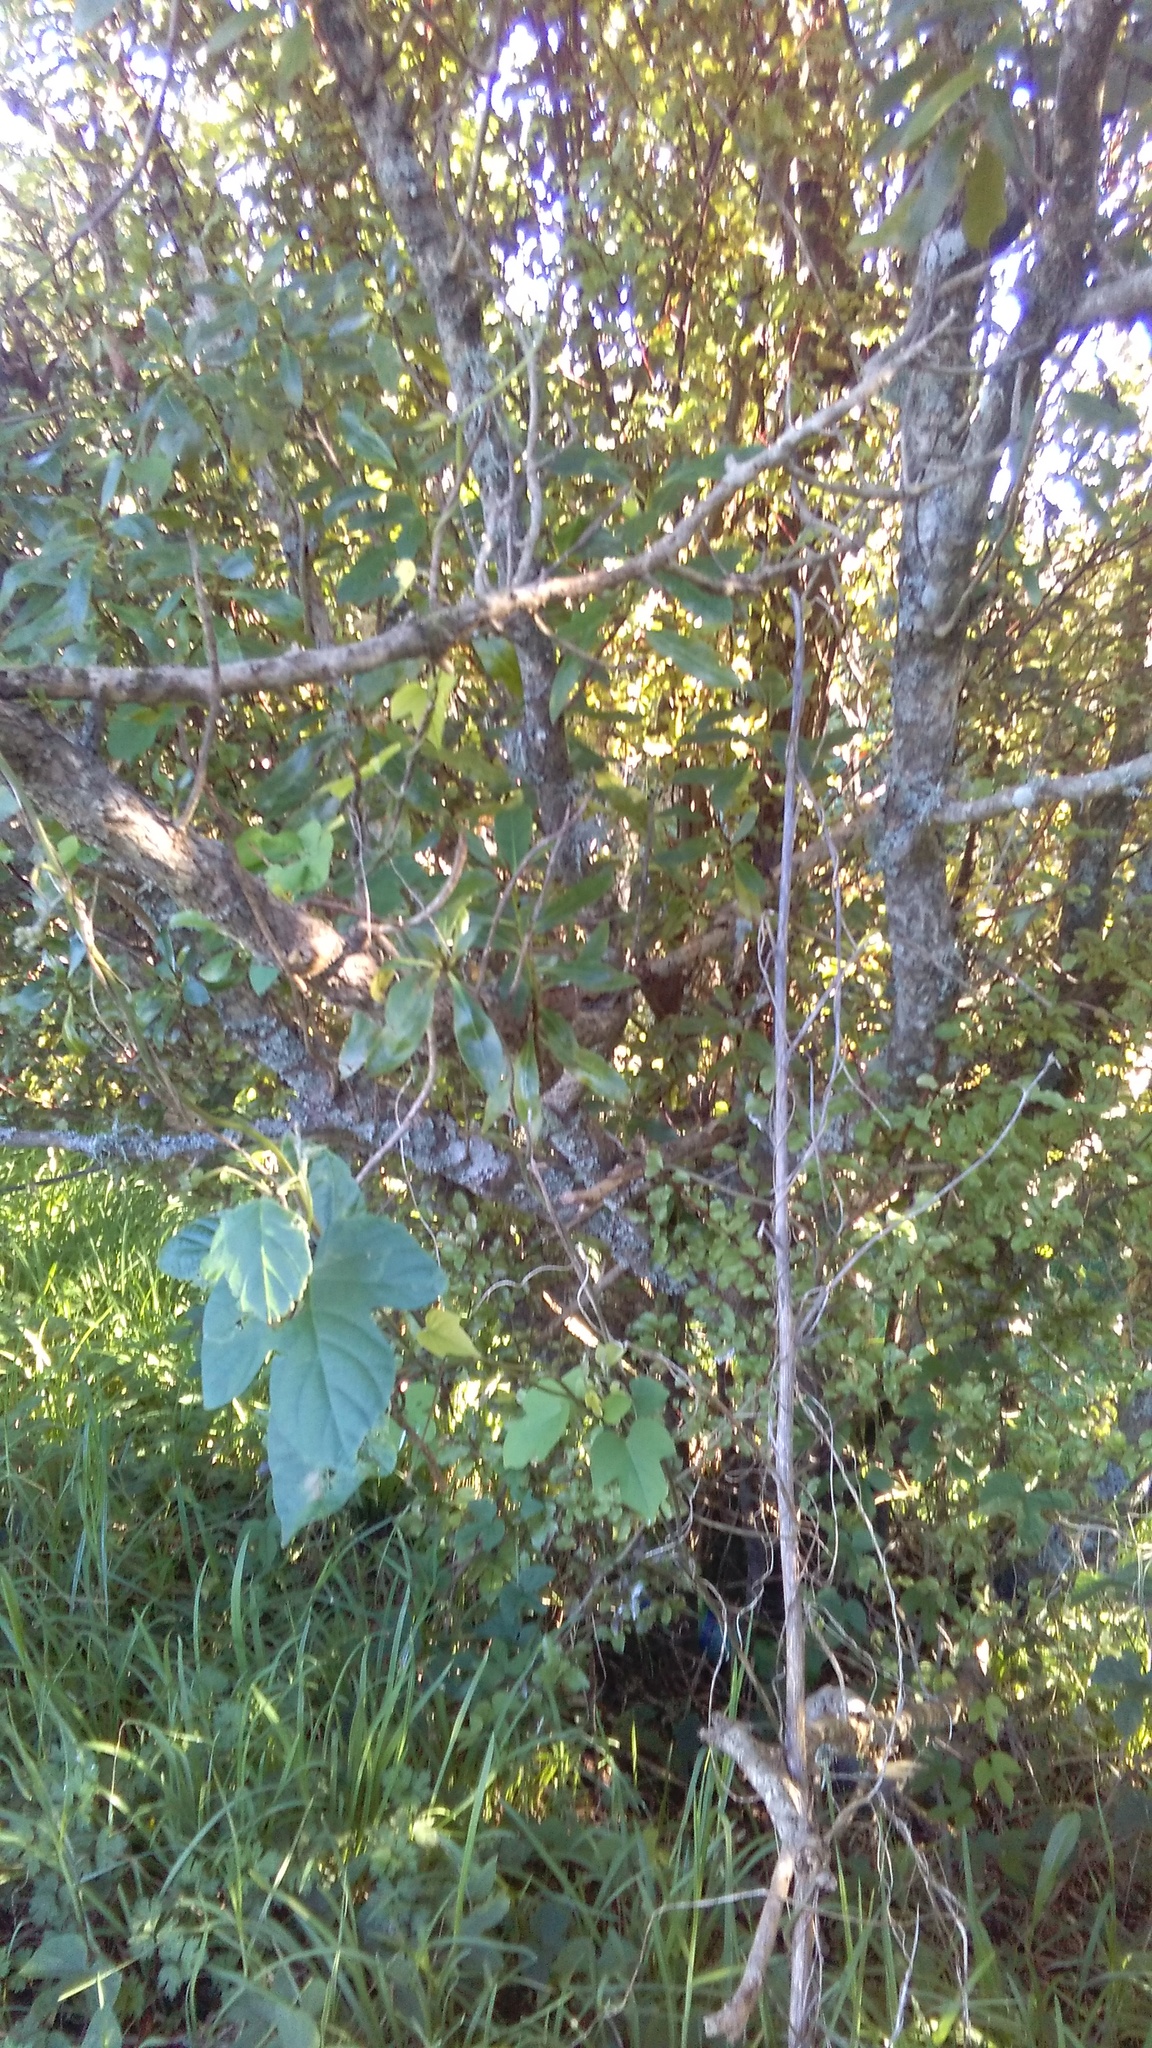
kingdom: Plantae
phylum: Tracheophyta
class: Magnoliopsida
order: Solanales
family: Convolvulaceae
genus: Ipomoea
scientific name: Ipomoea indica
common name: Blue dawnflower
